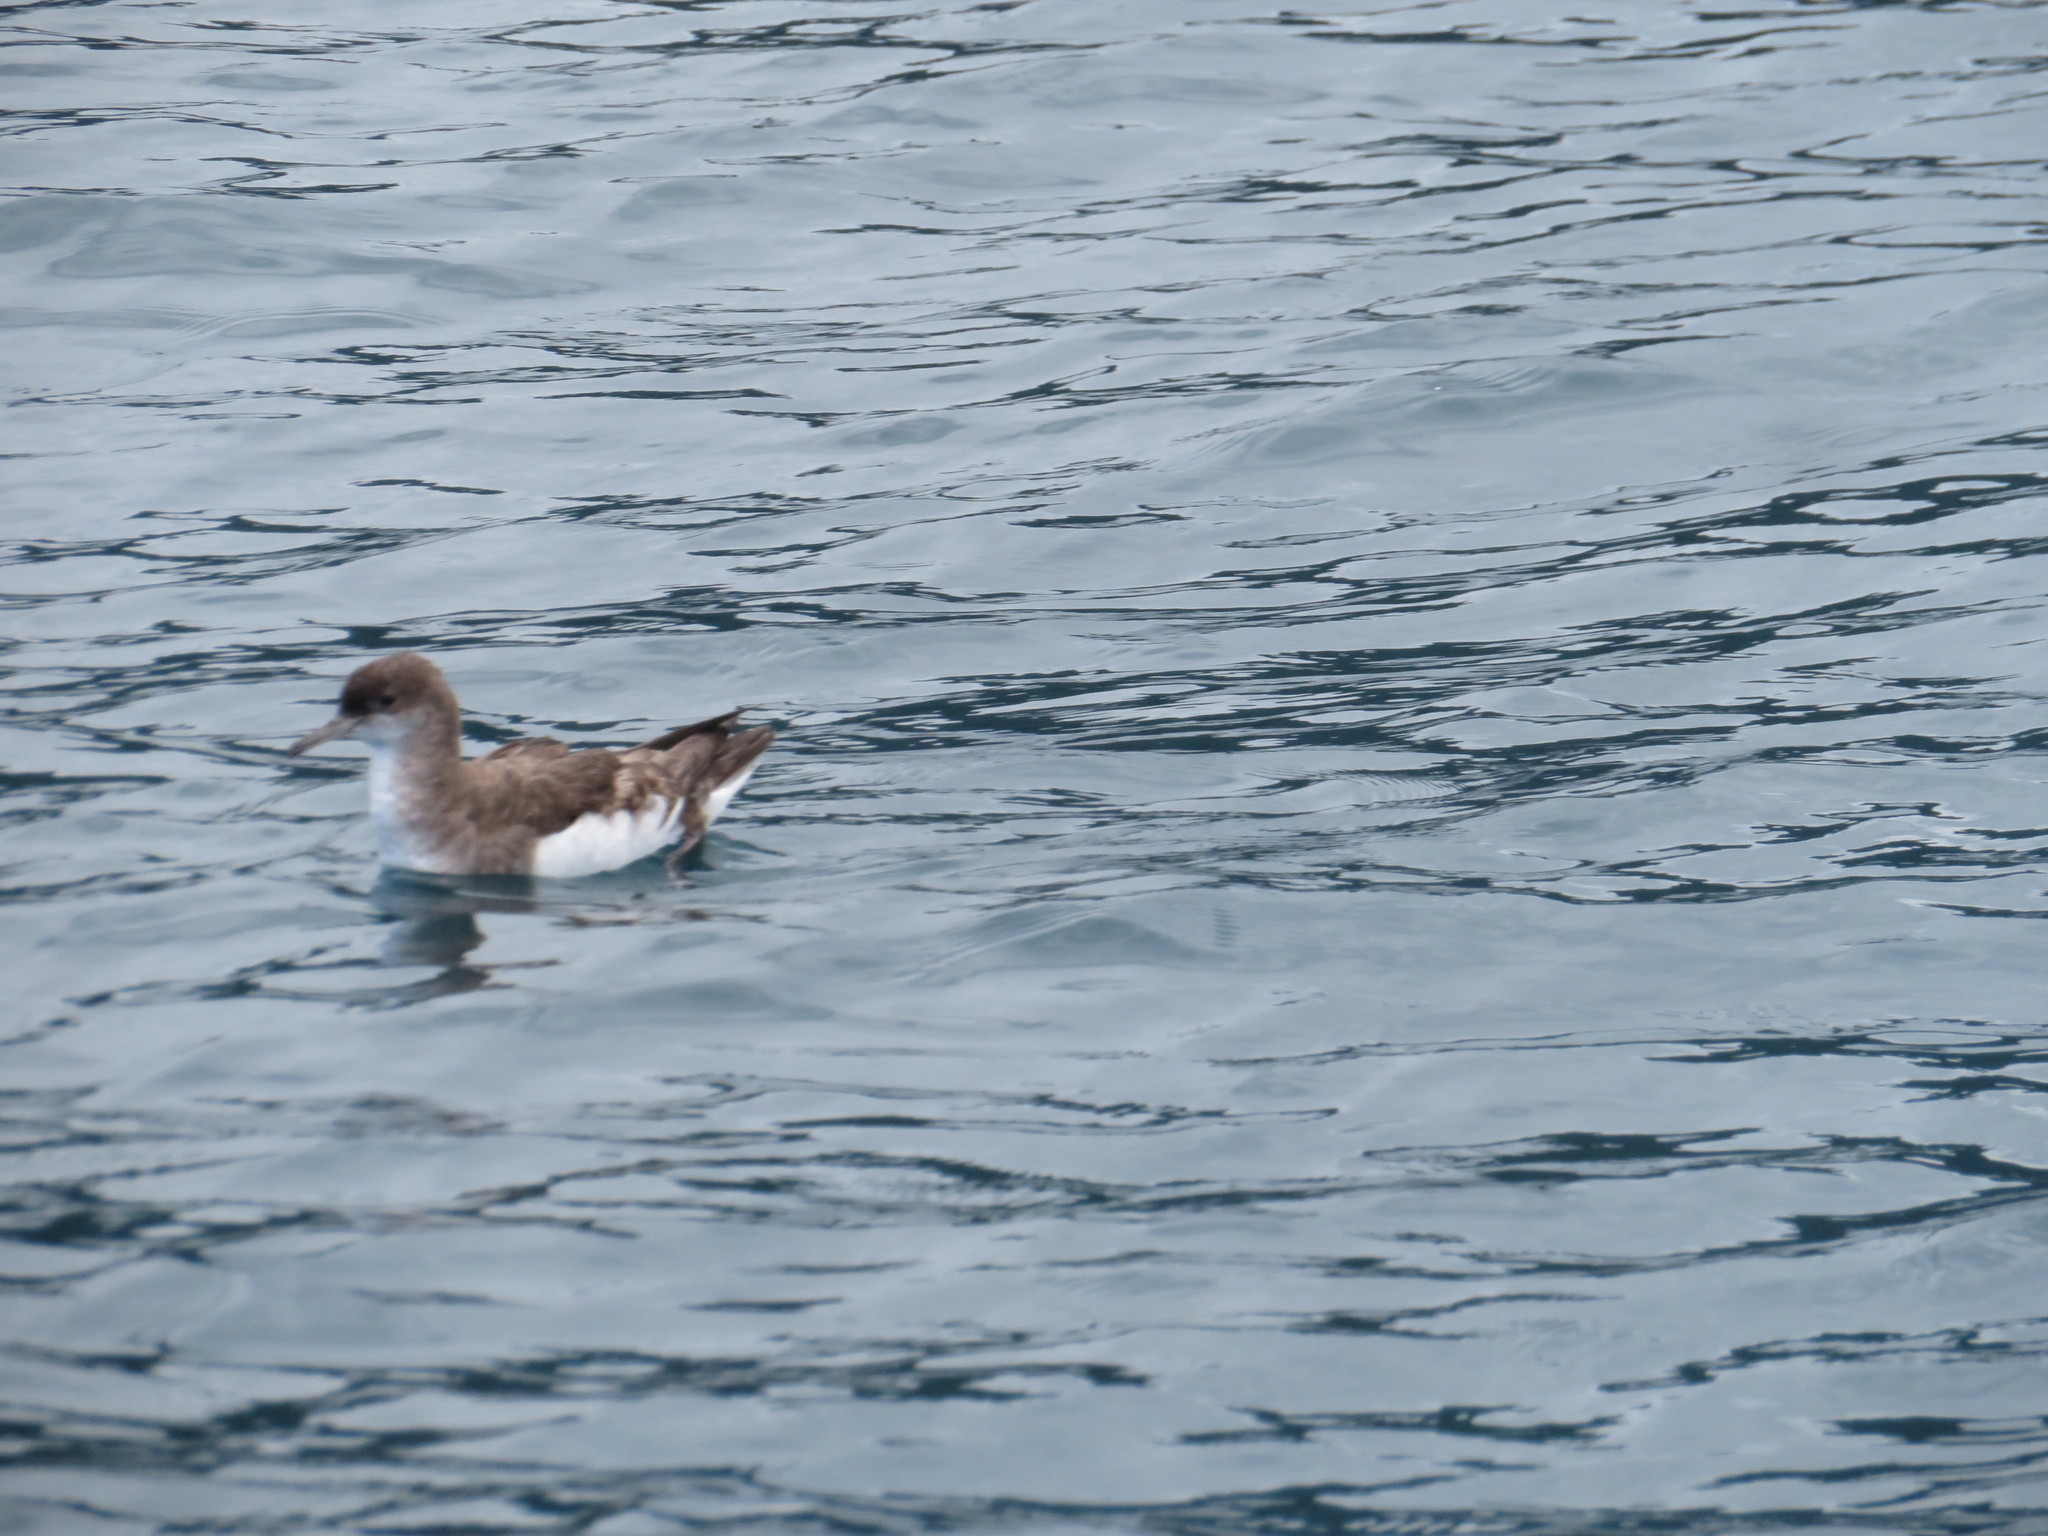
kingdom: Animalia
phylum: Chordata
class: Aves
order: Procellariiformes
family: Procellariidae
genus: Puffinus
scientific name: Puffinus gavia
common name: Fluttering shearwater
